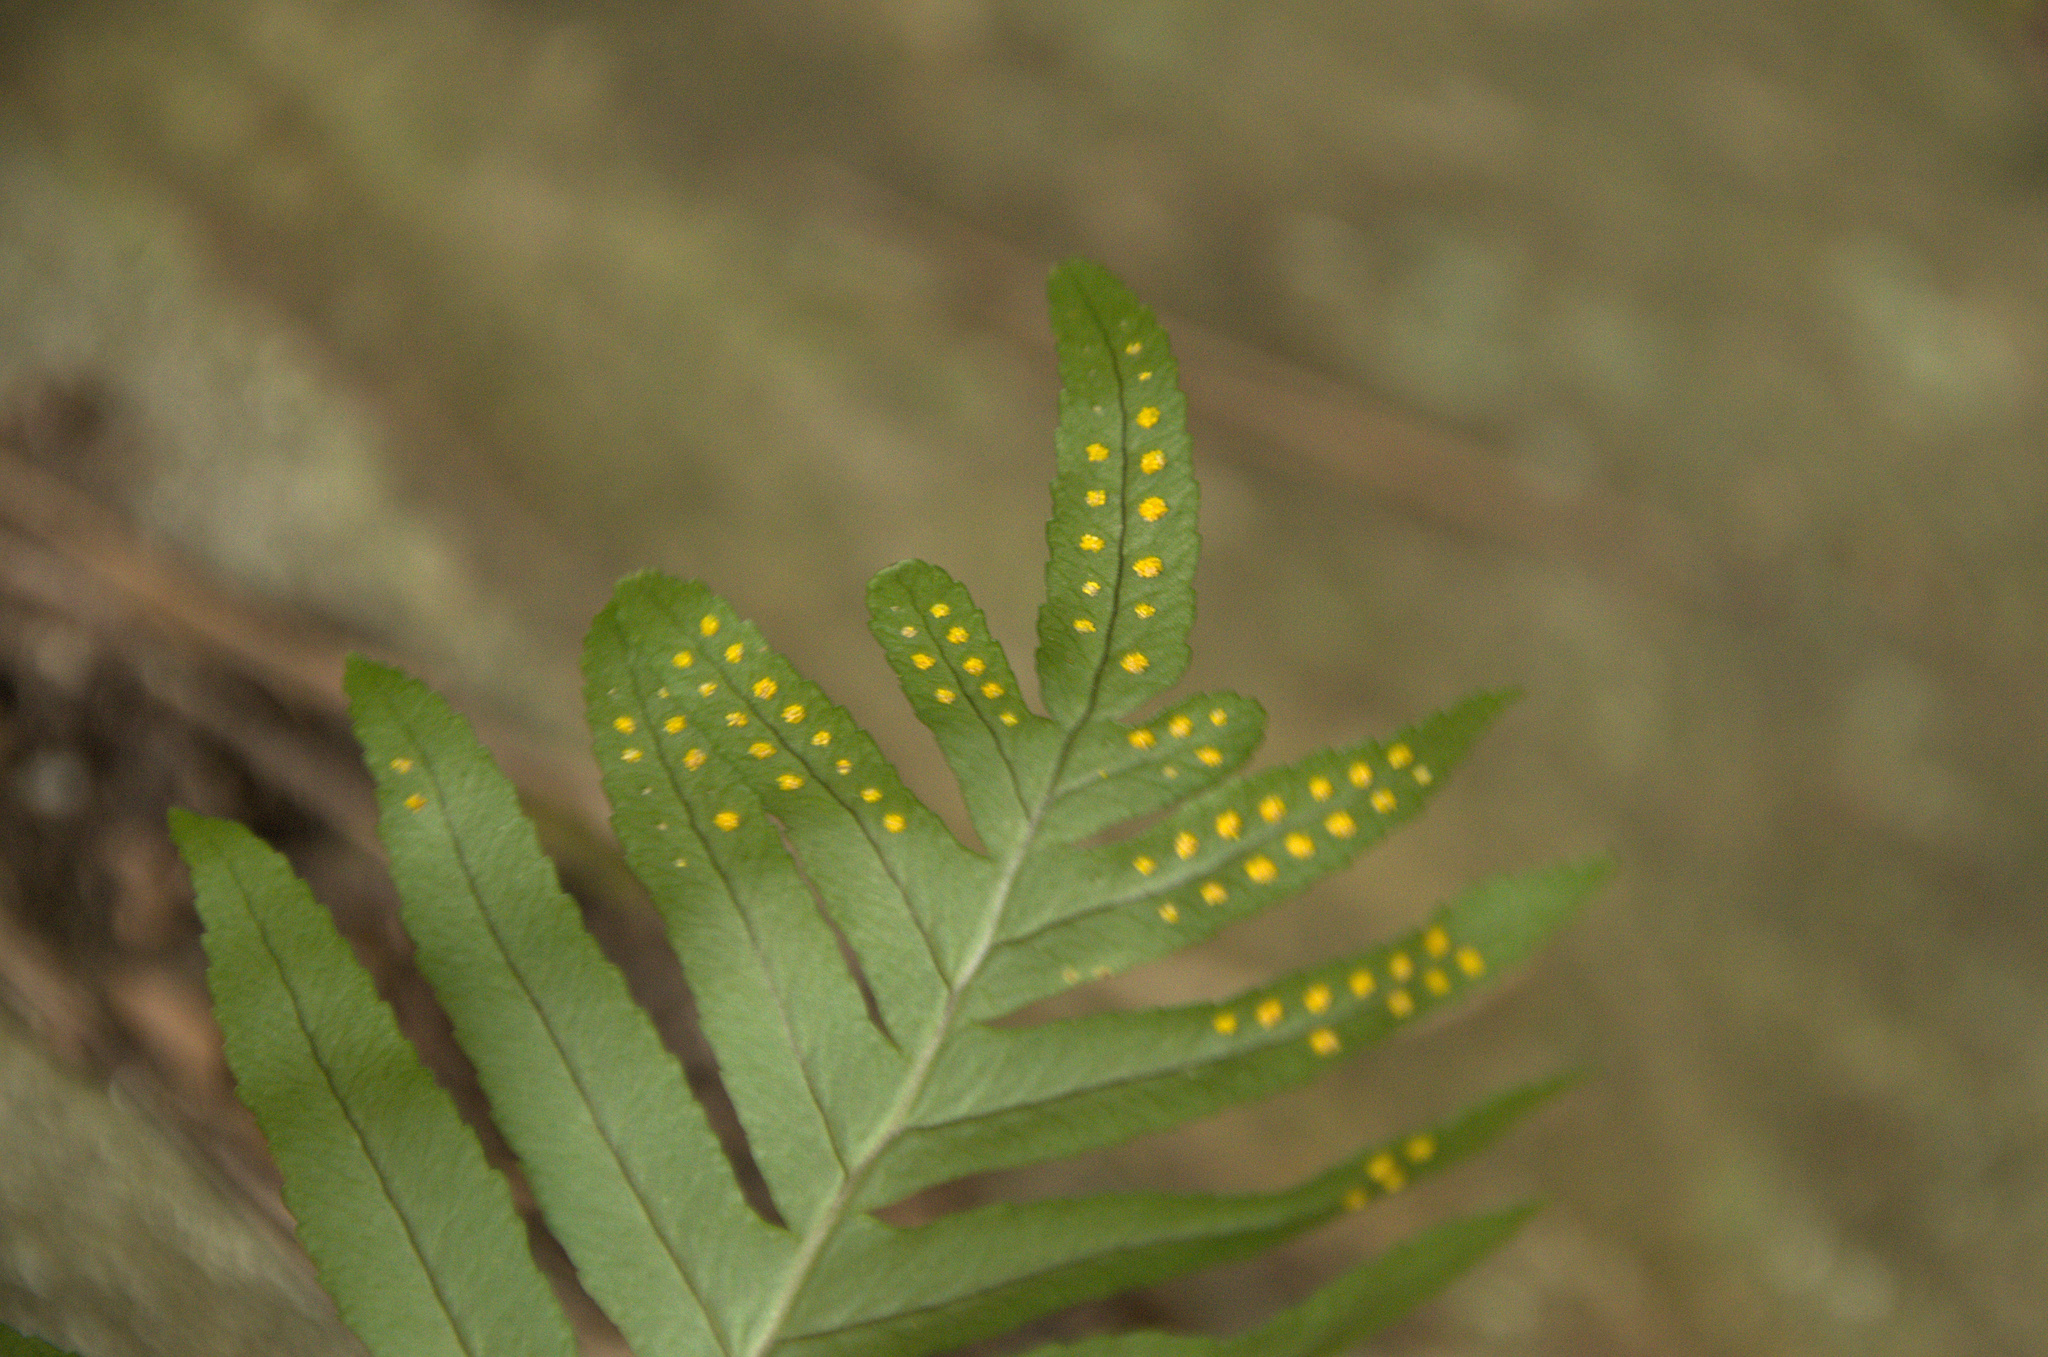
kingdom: Plantae
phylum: Tracheophyta
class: Polypodiopsida
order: Polypodiales
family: Polypodiaceae
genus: Polypodium
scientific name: Polypodium cambricum
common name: Southern polypody
